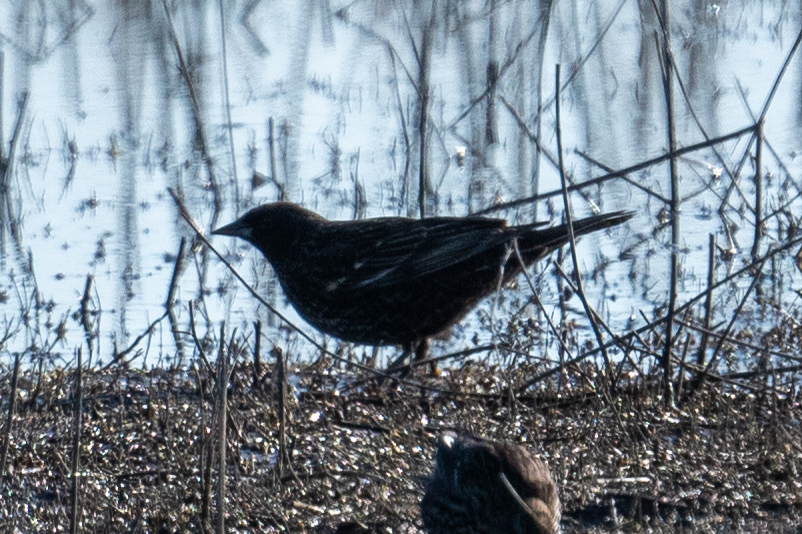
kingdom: Animalia
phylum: Chordata
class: Aves
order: Passeriformes
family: Icteridae
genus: Agelaius
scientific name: Agelaius phoeniceus
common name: Red-winged blackbird
